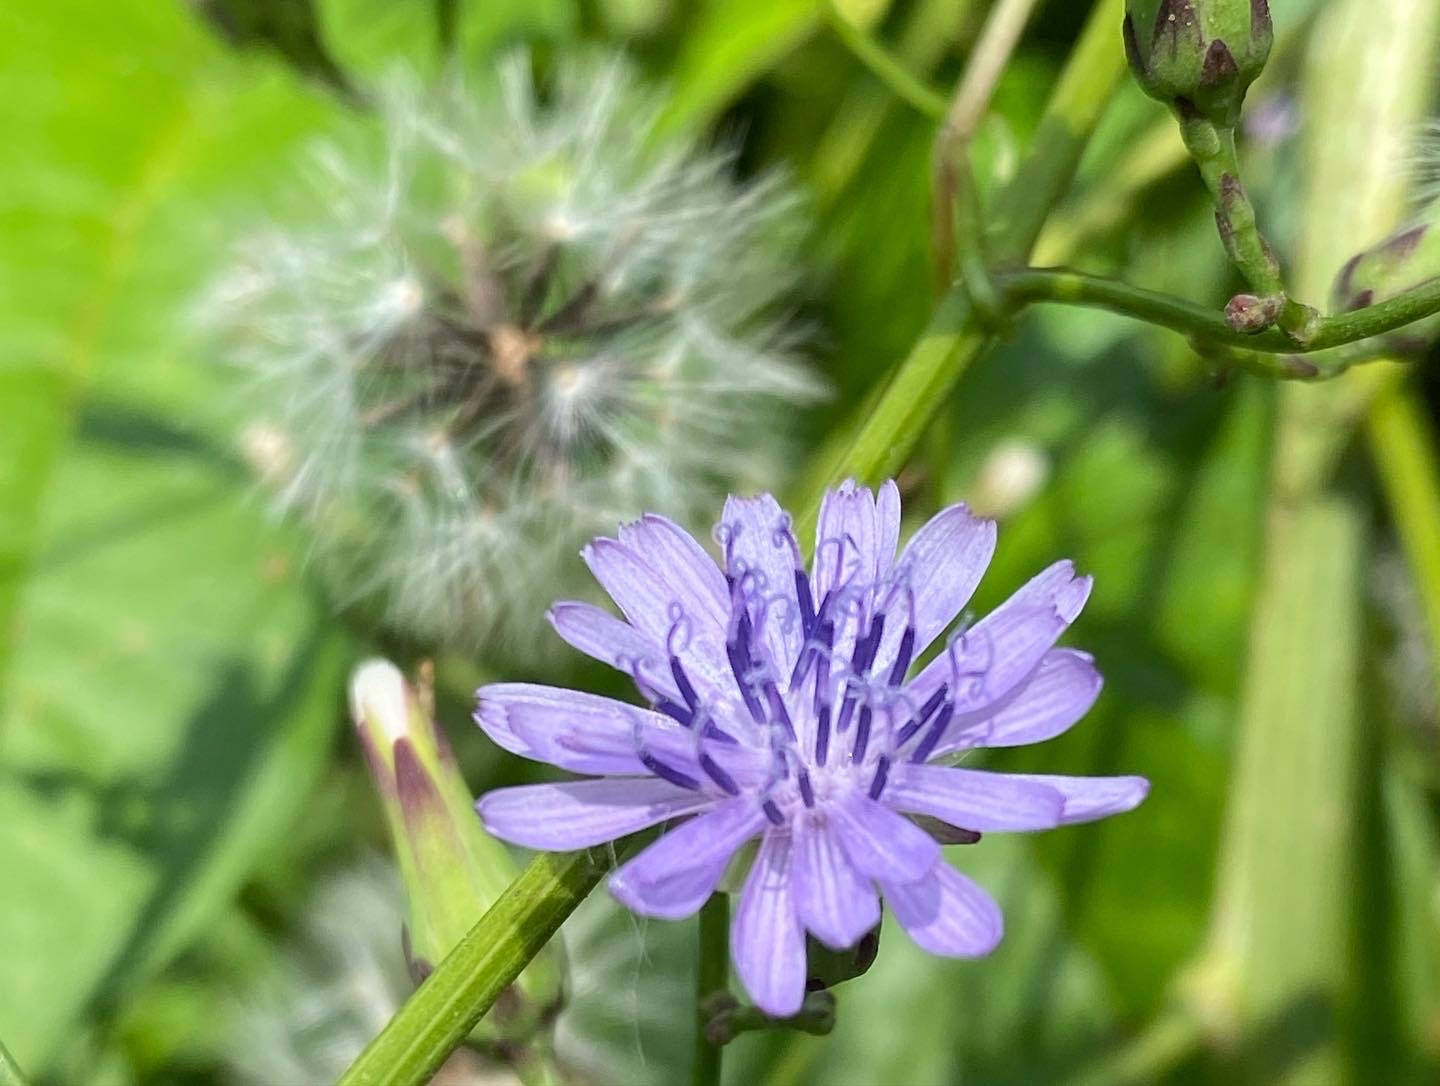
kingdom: Plantae
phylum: Tracheophyta
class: Magnoliopsida
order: Asterales
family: Asteraceae
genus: Lactuca
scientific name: Lactuca floridana
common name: Woodland lettuce
